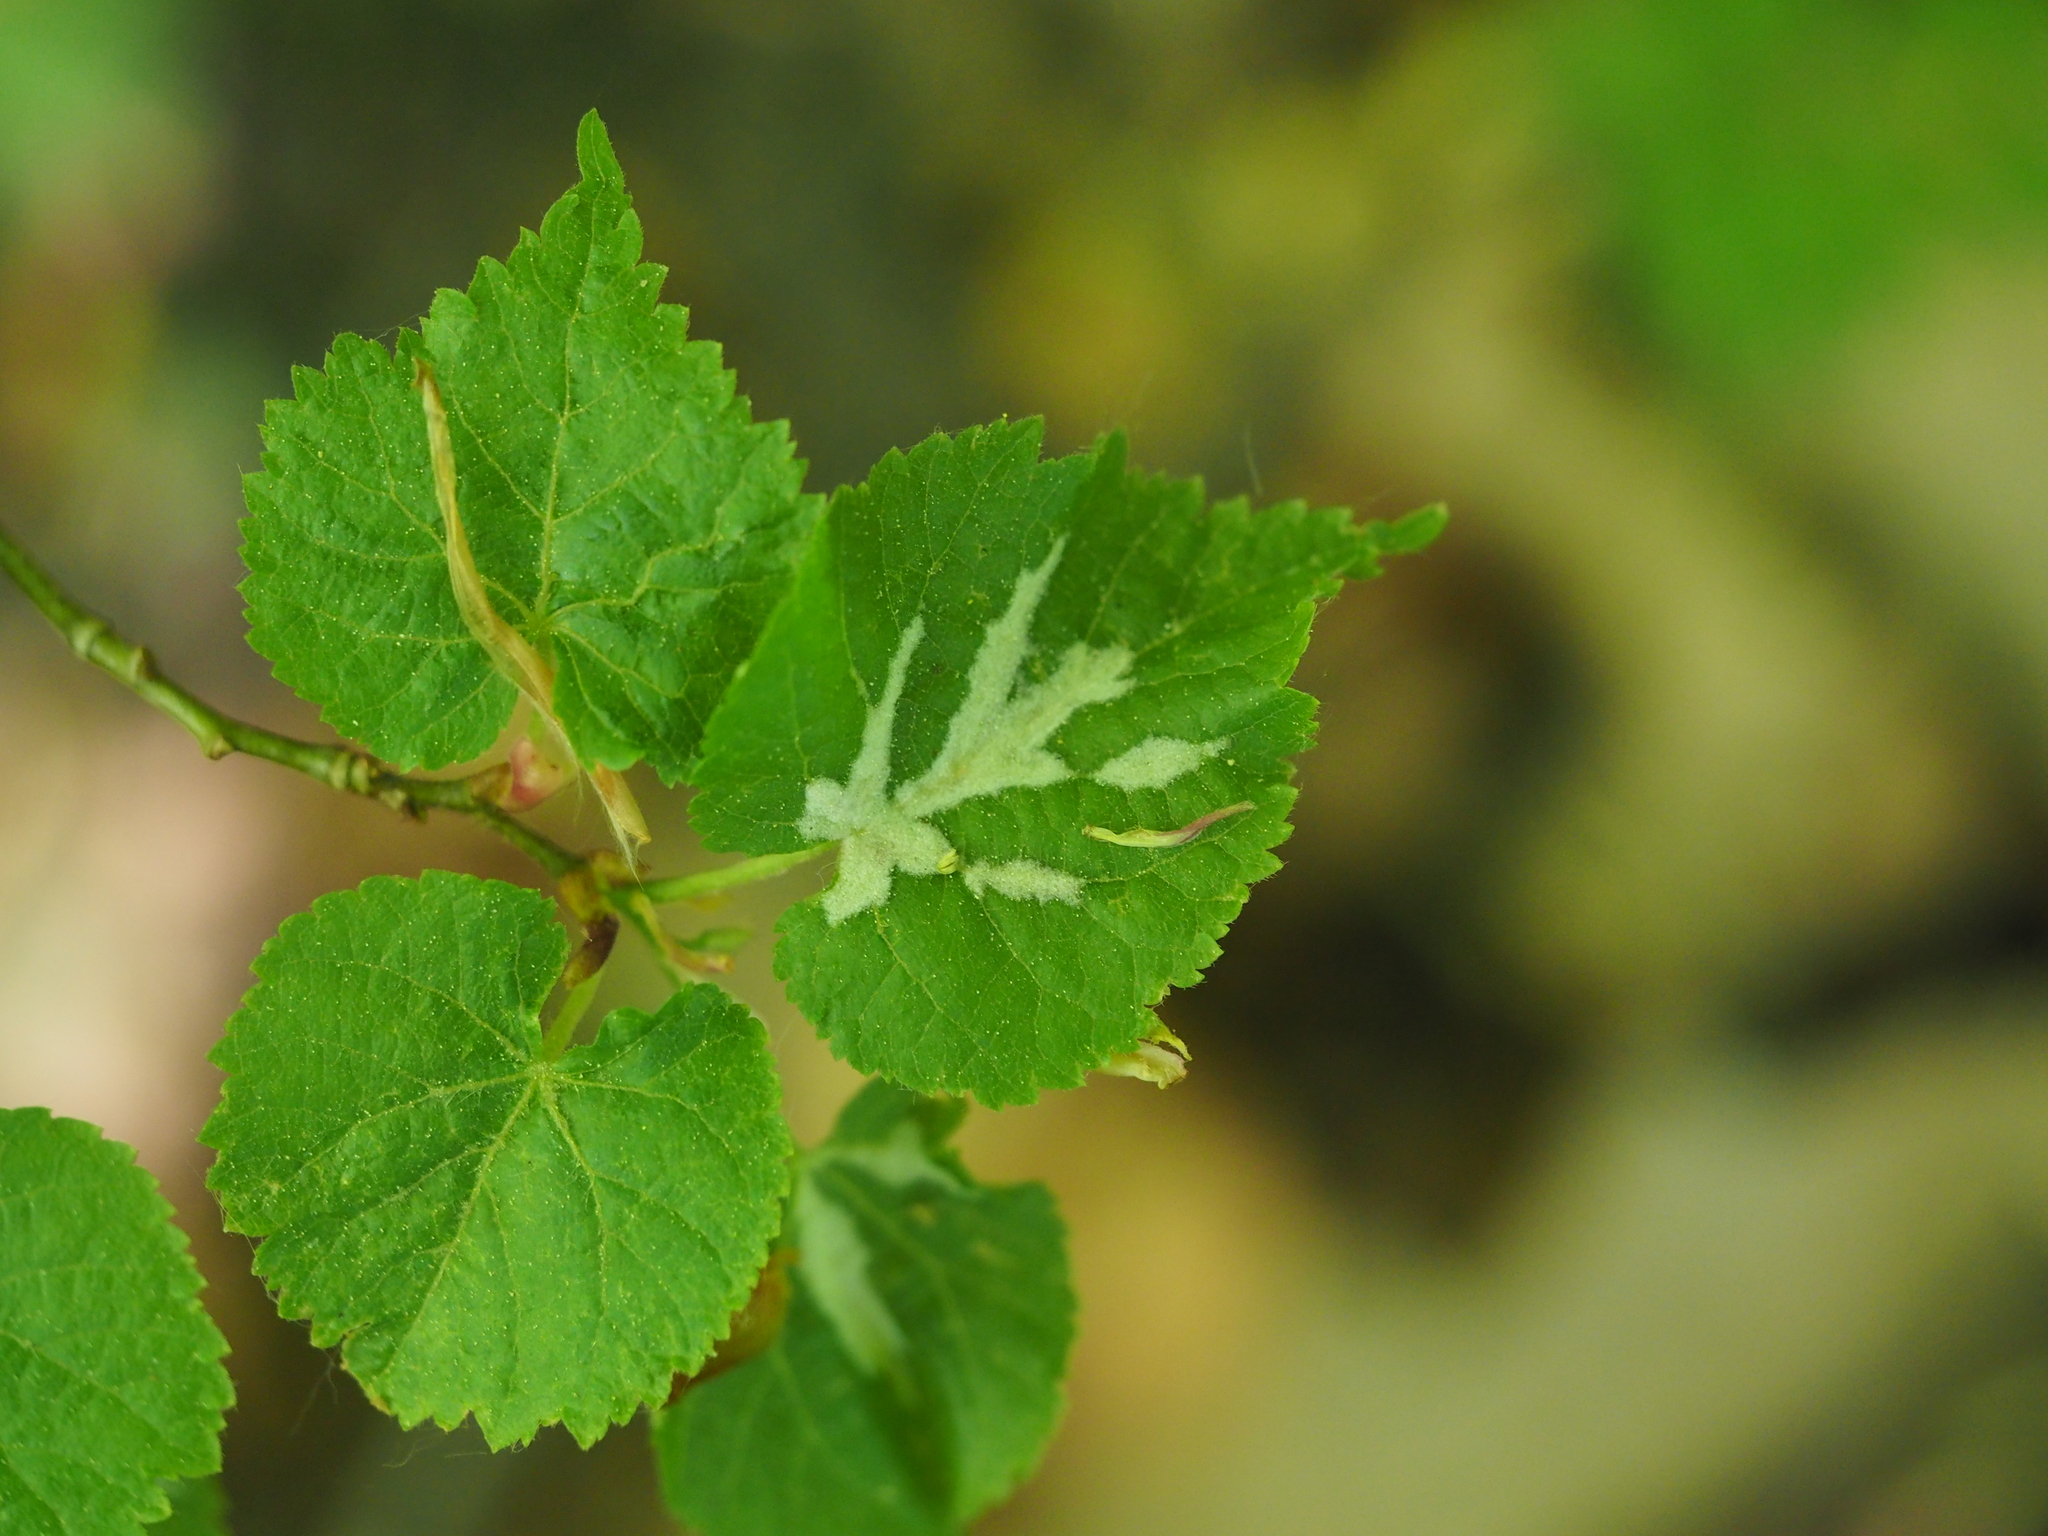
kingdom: Animalia
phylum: Arthropoda
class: Arachnida
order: Trombidiformes
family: Eriophyidae
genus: Eriophyes
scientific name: Eriophyes leiosoma
